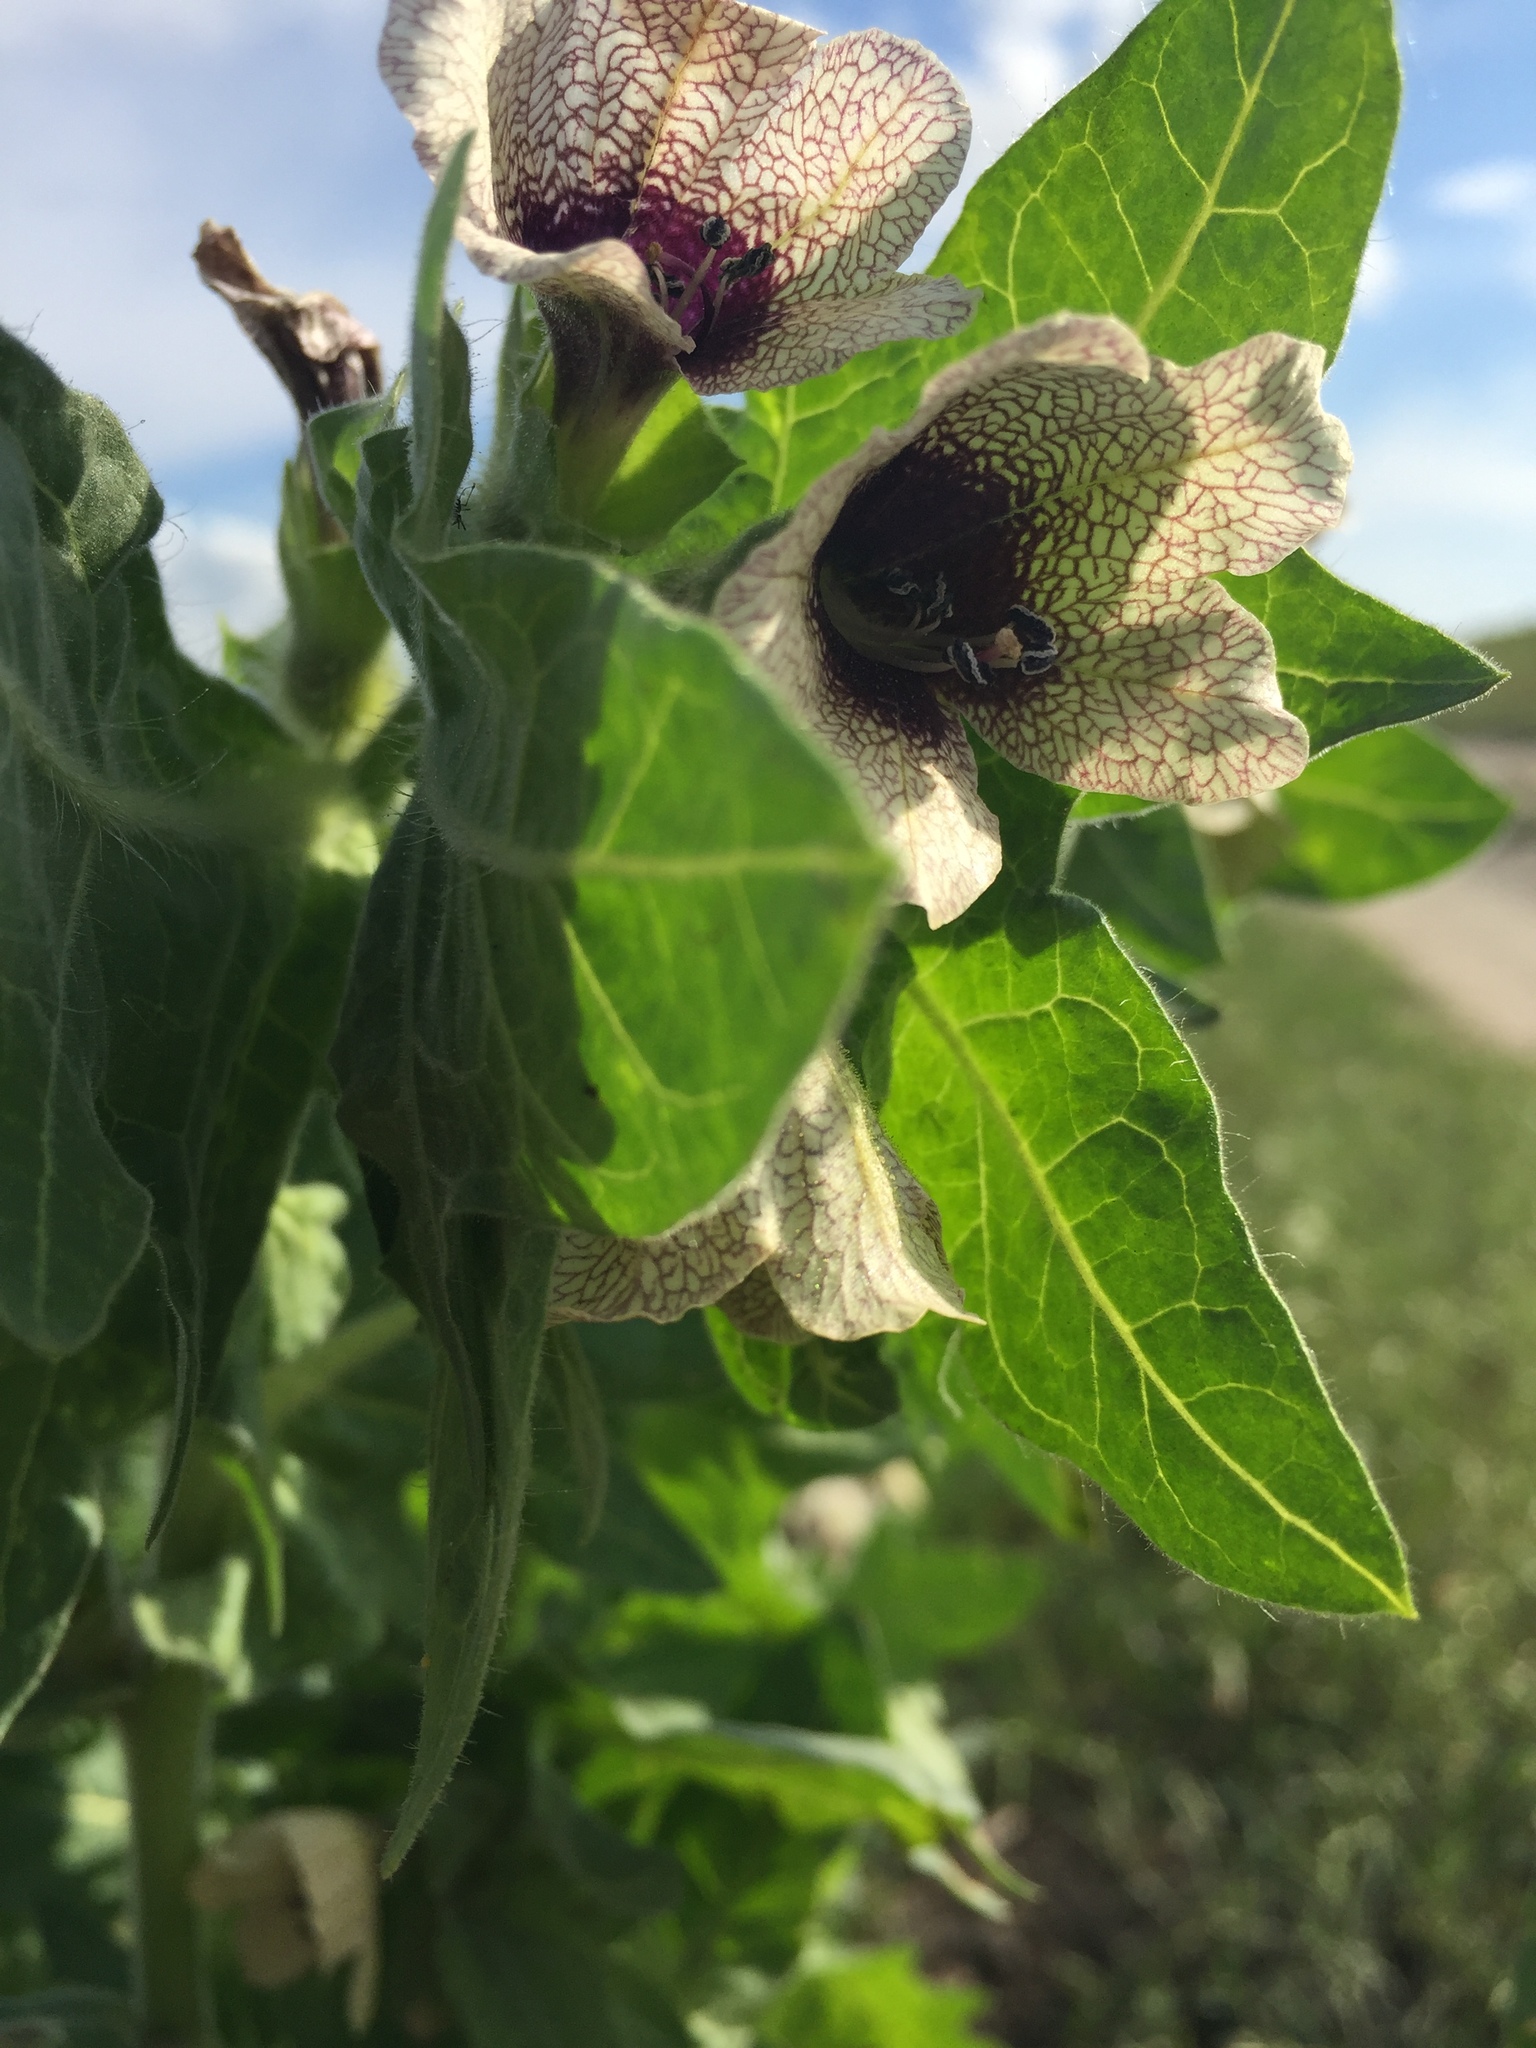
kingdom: Plantae
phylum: Tracheophyta
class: Magnoliopsida
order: Solanales
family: Solanaceae
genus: Hyoscyamus
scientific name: Hyoscyamus niger
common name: Henbane
